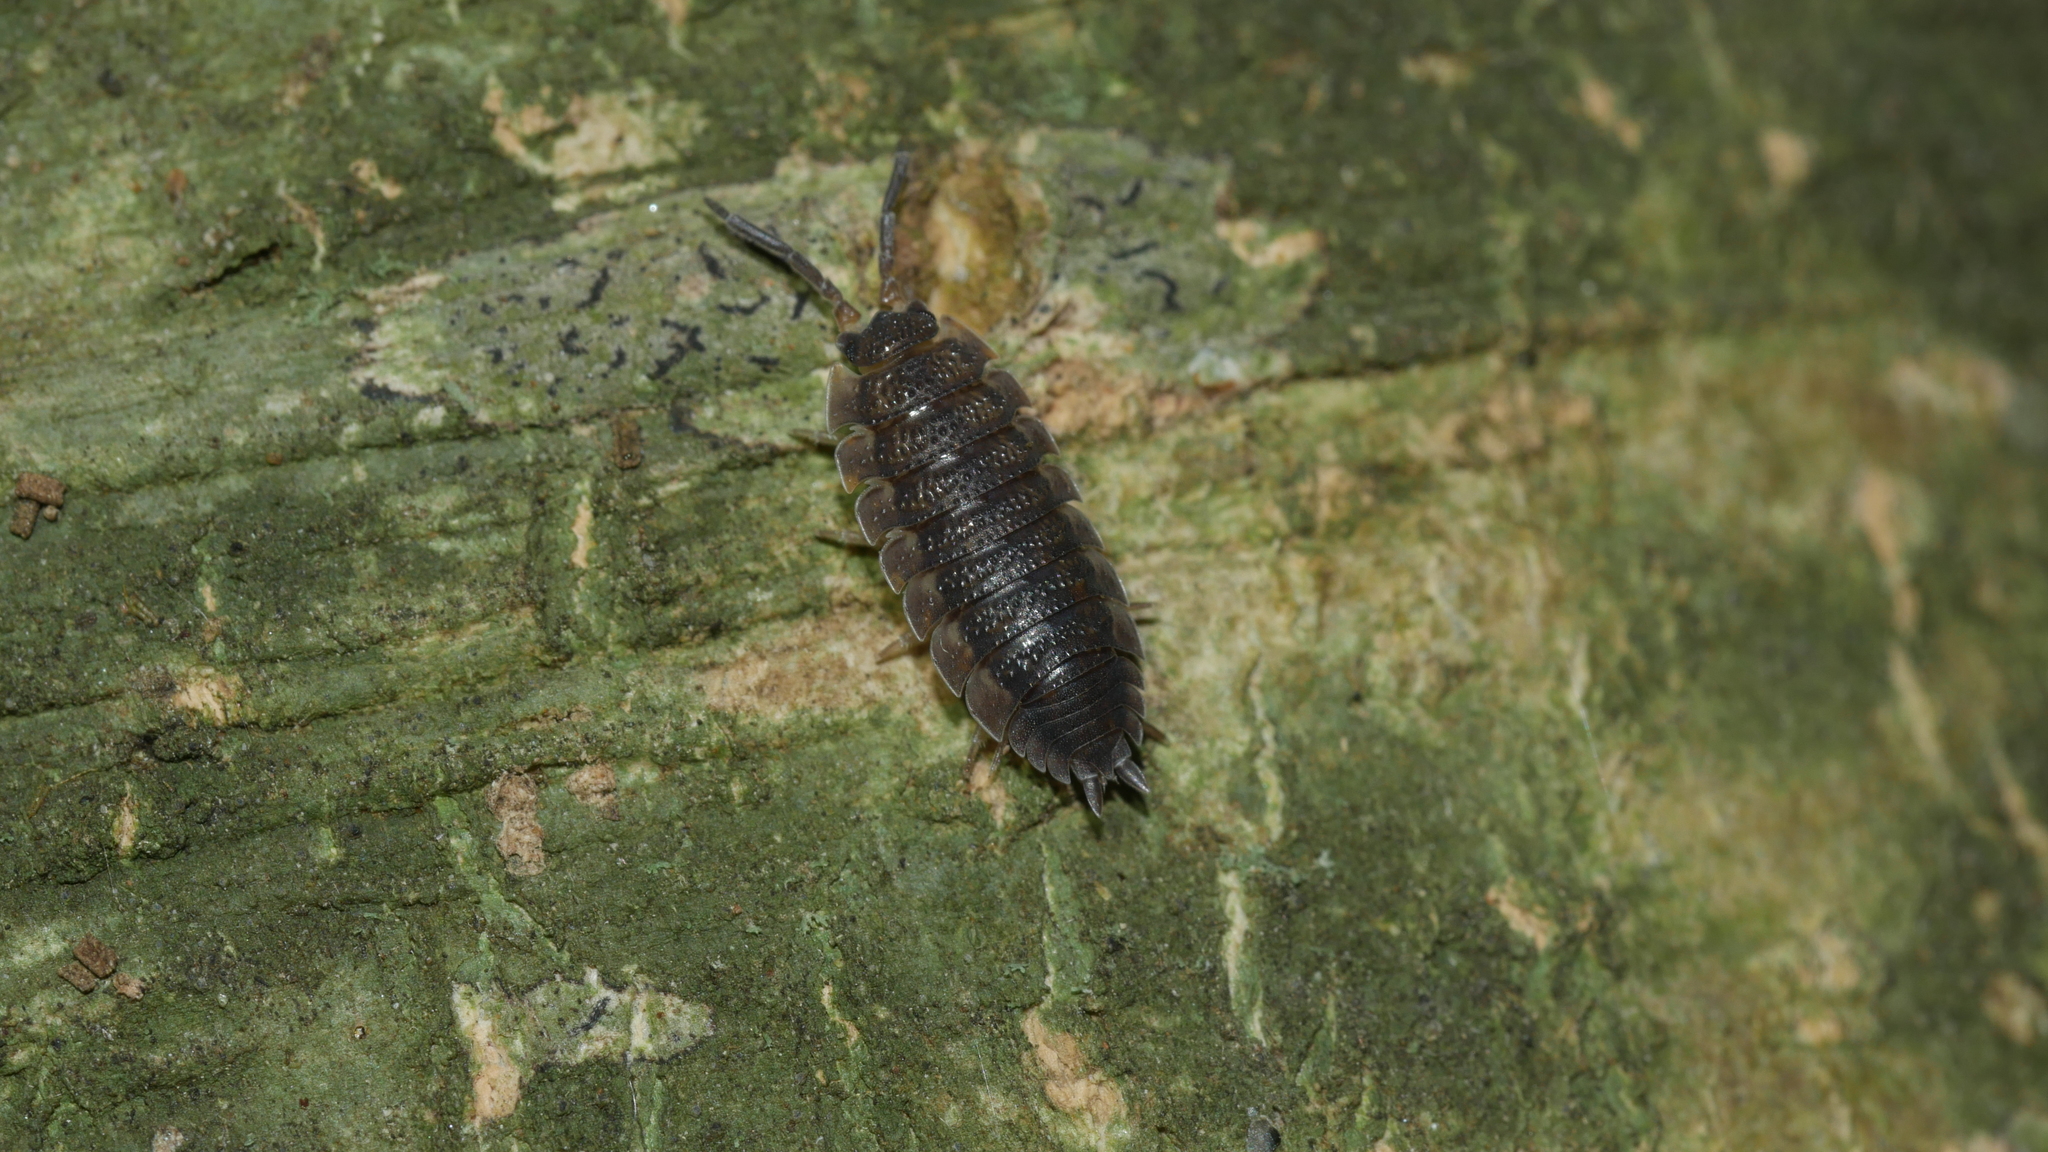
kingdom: Animalia
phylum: Arthropoda
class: Malacostraca
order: Isopoda
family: Porcellionidae
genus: Porcellio
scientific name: Porcellio scaber
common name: Common rough woodlouse
